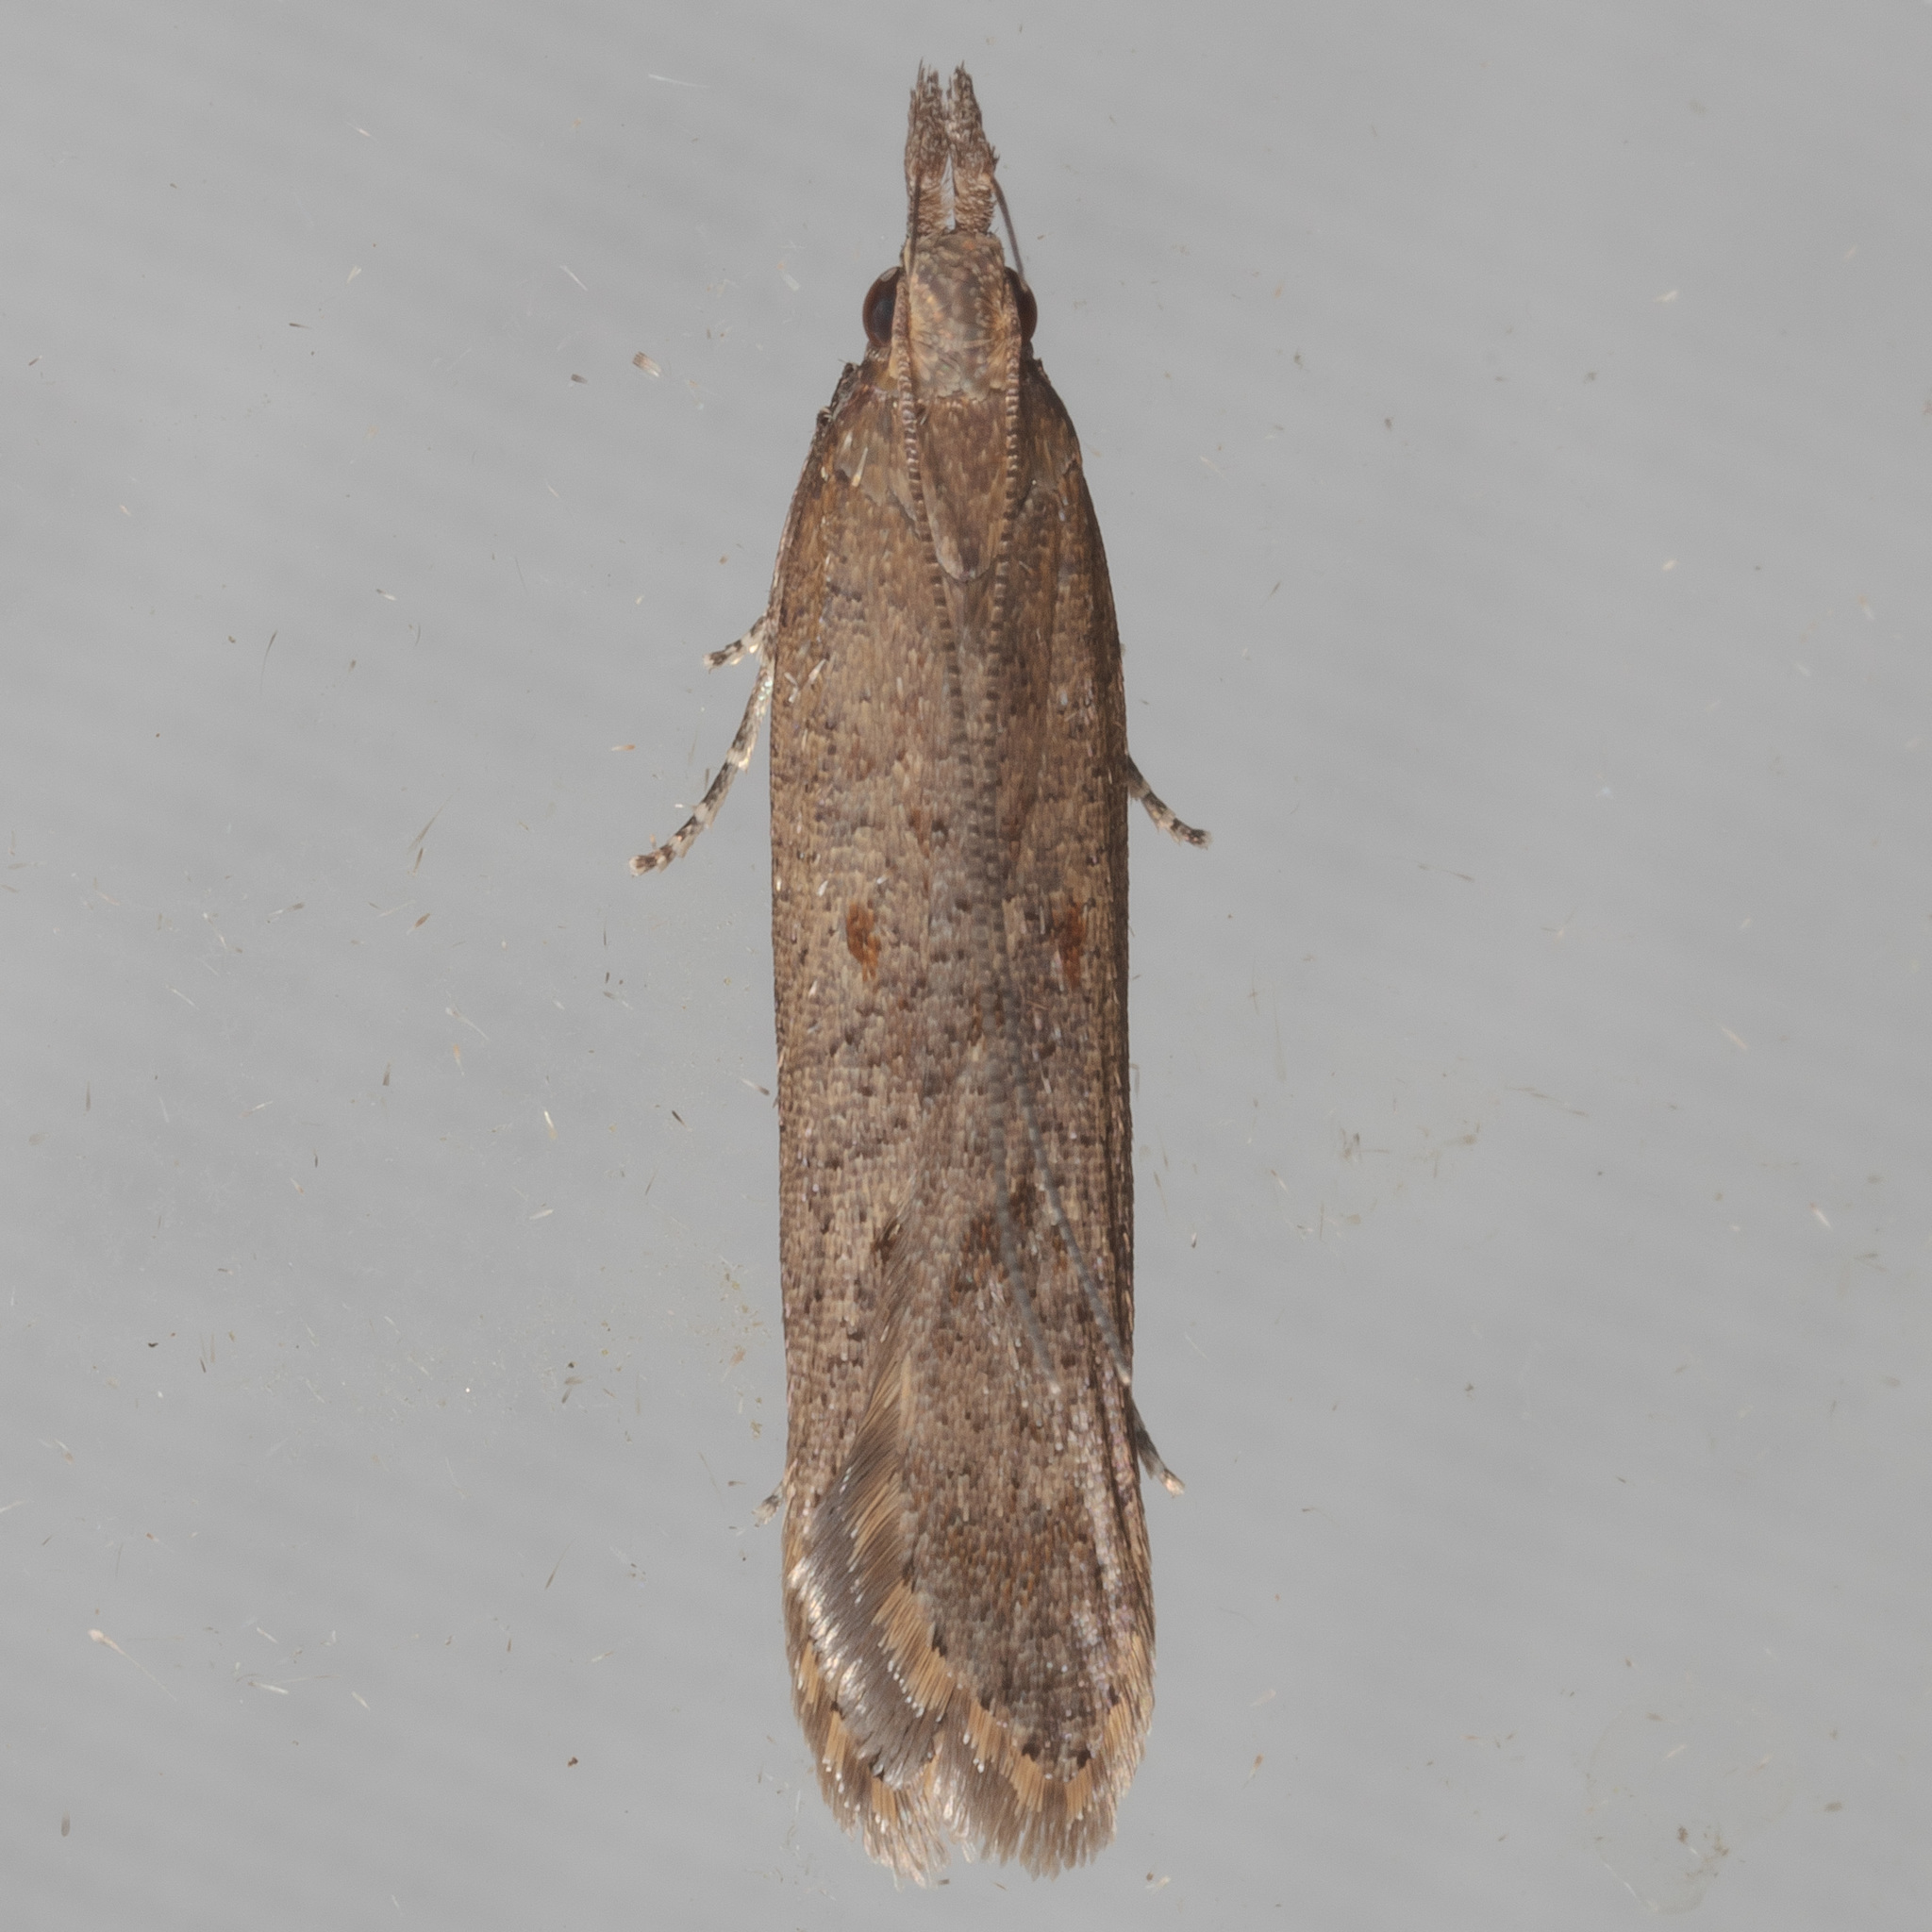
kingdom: Animalia
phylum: Arthropoda
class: Insecta
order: Lepidoptera
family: Gelechiidae
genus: Dichomeris
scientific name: Dichomeris ligulella
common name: Moth
